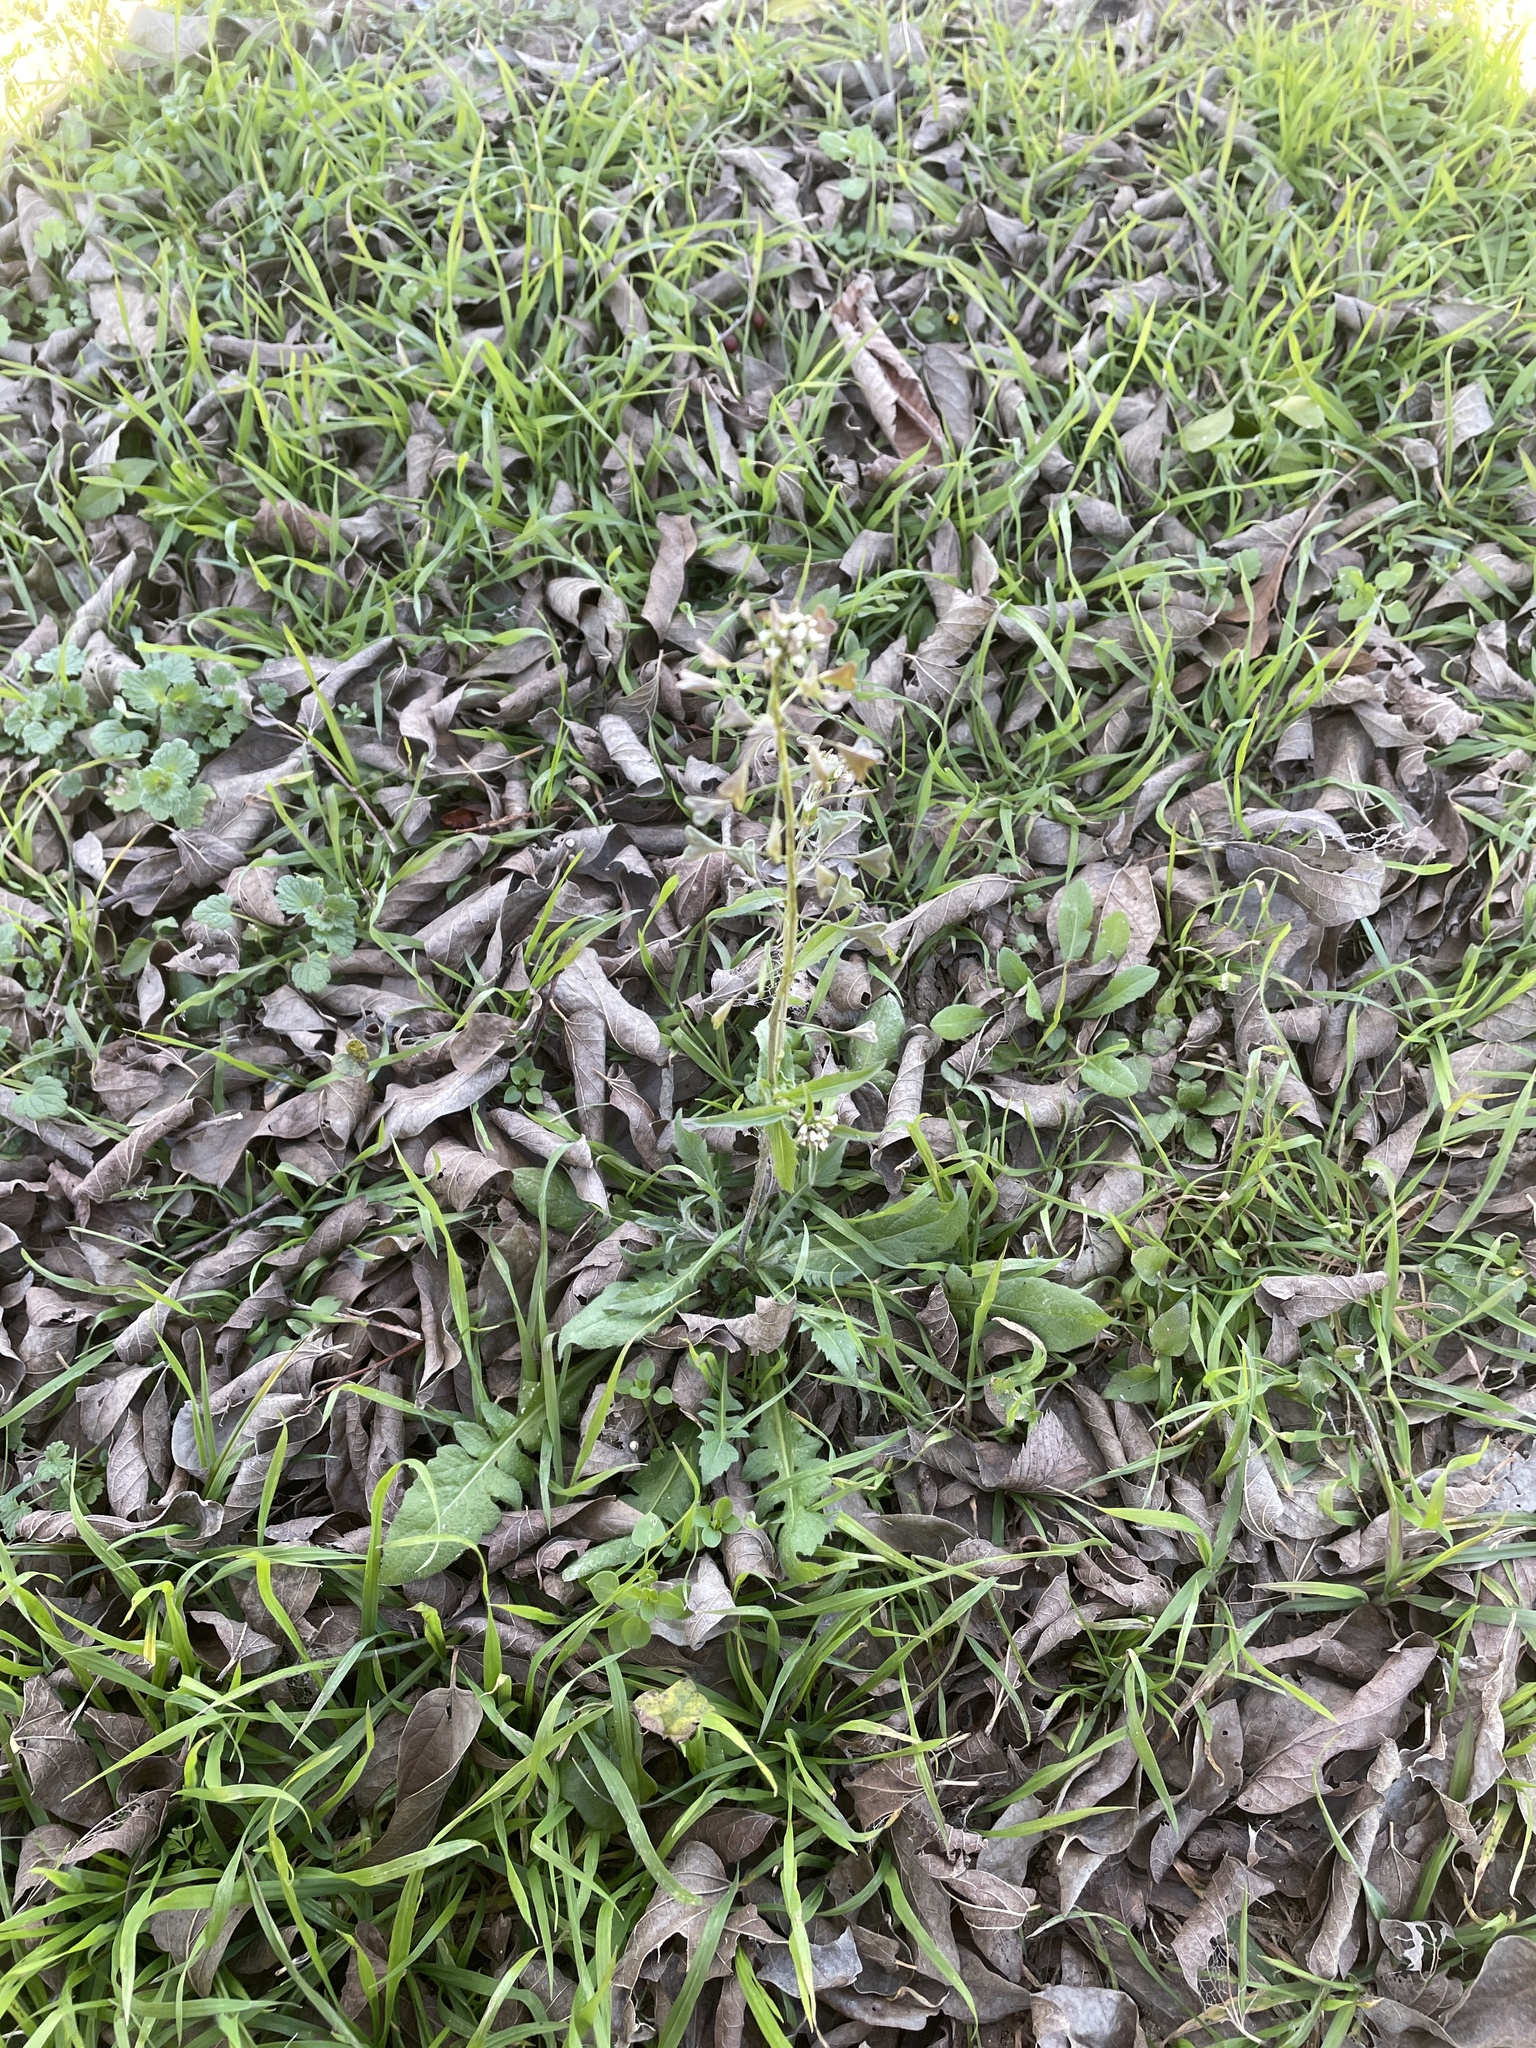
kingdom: Plantae
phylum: Tracheophyta
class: Magnoliopsida
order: Brassicales
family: Brassicaceae
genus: Capsella
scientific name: Capsella bursa-pastoris
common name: Shepherd's purse
